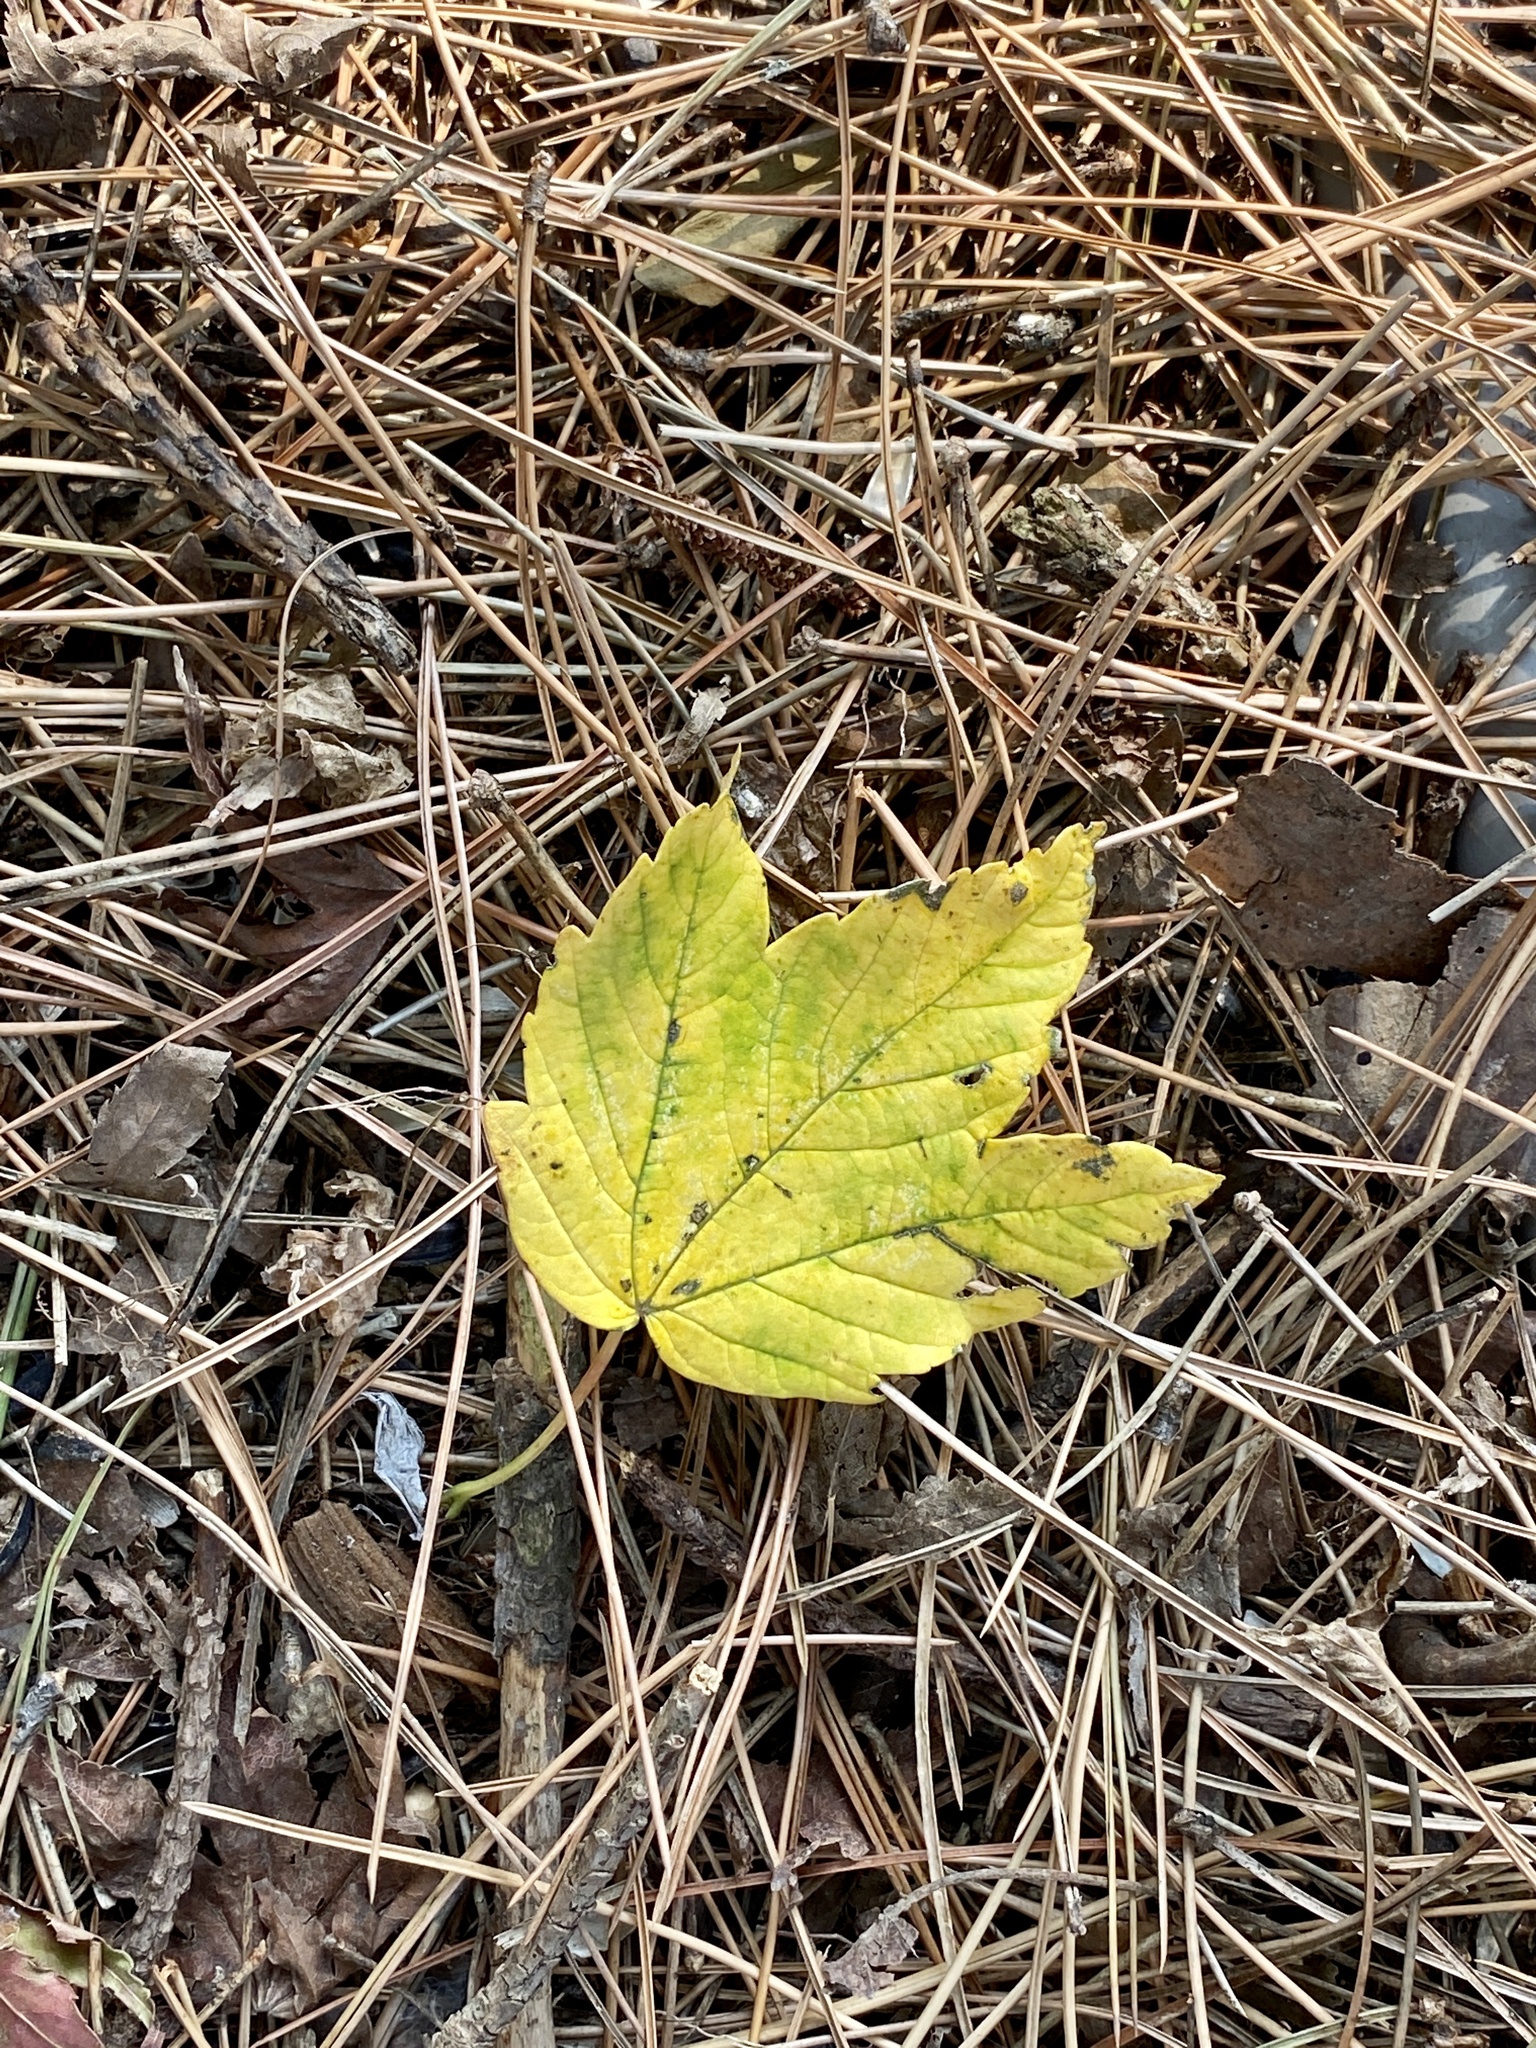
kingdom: Plantae
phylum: Tracheophyta
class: Magnoliopsida
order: Sapindales
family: Sapindaceae
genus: Acer
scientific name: Acer pseudoplatanus
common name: Sycamore
